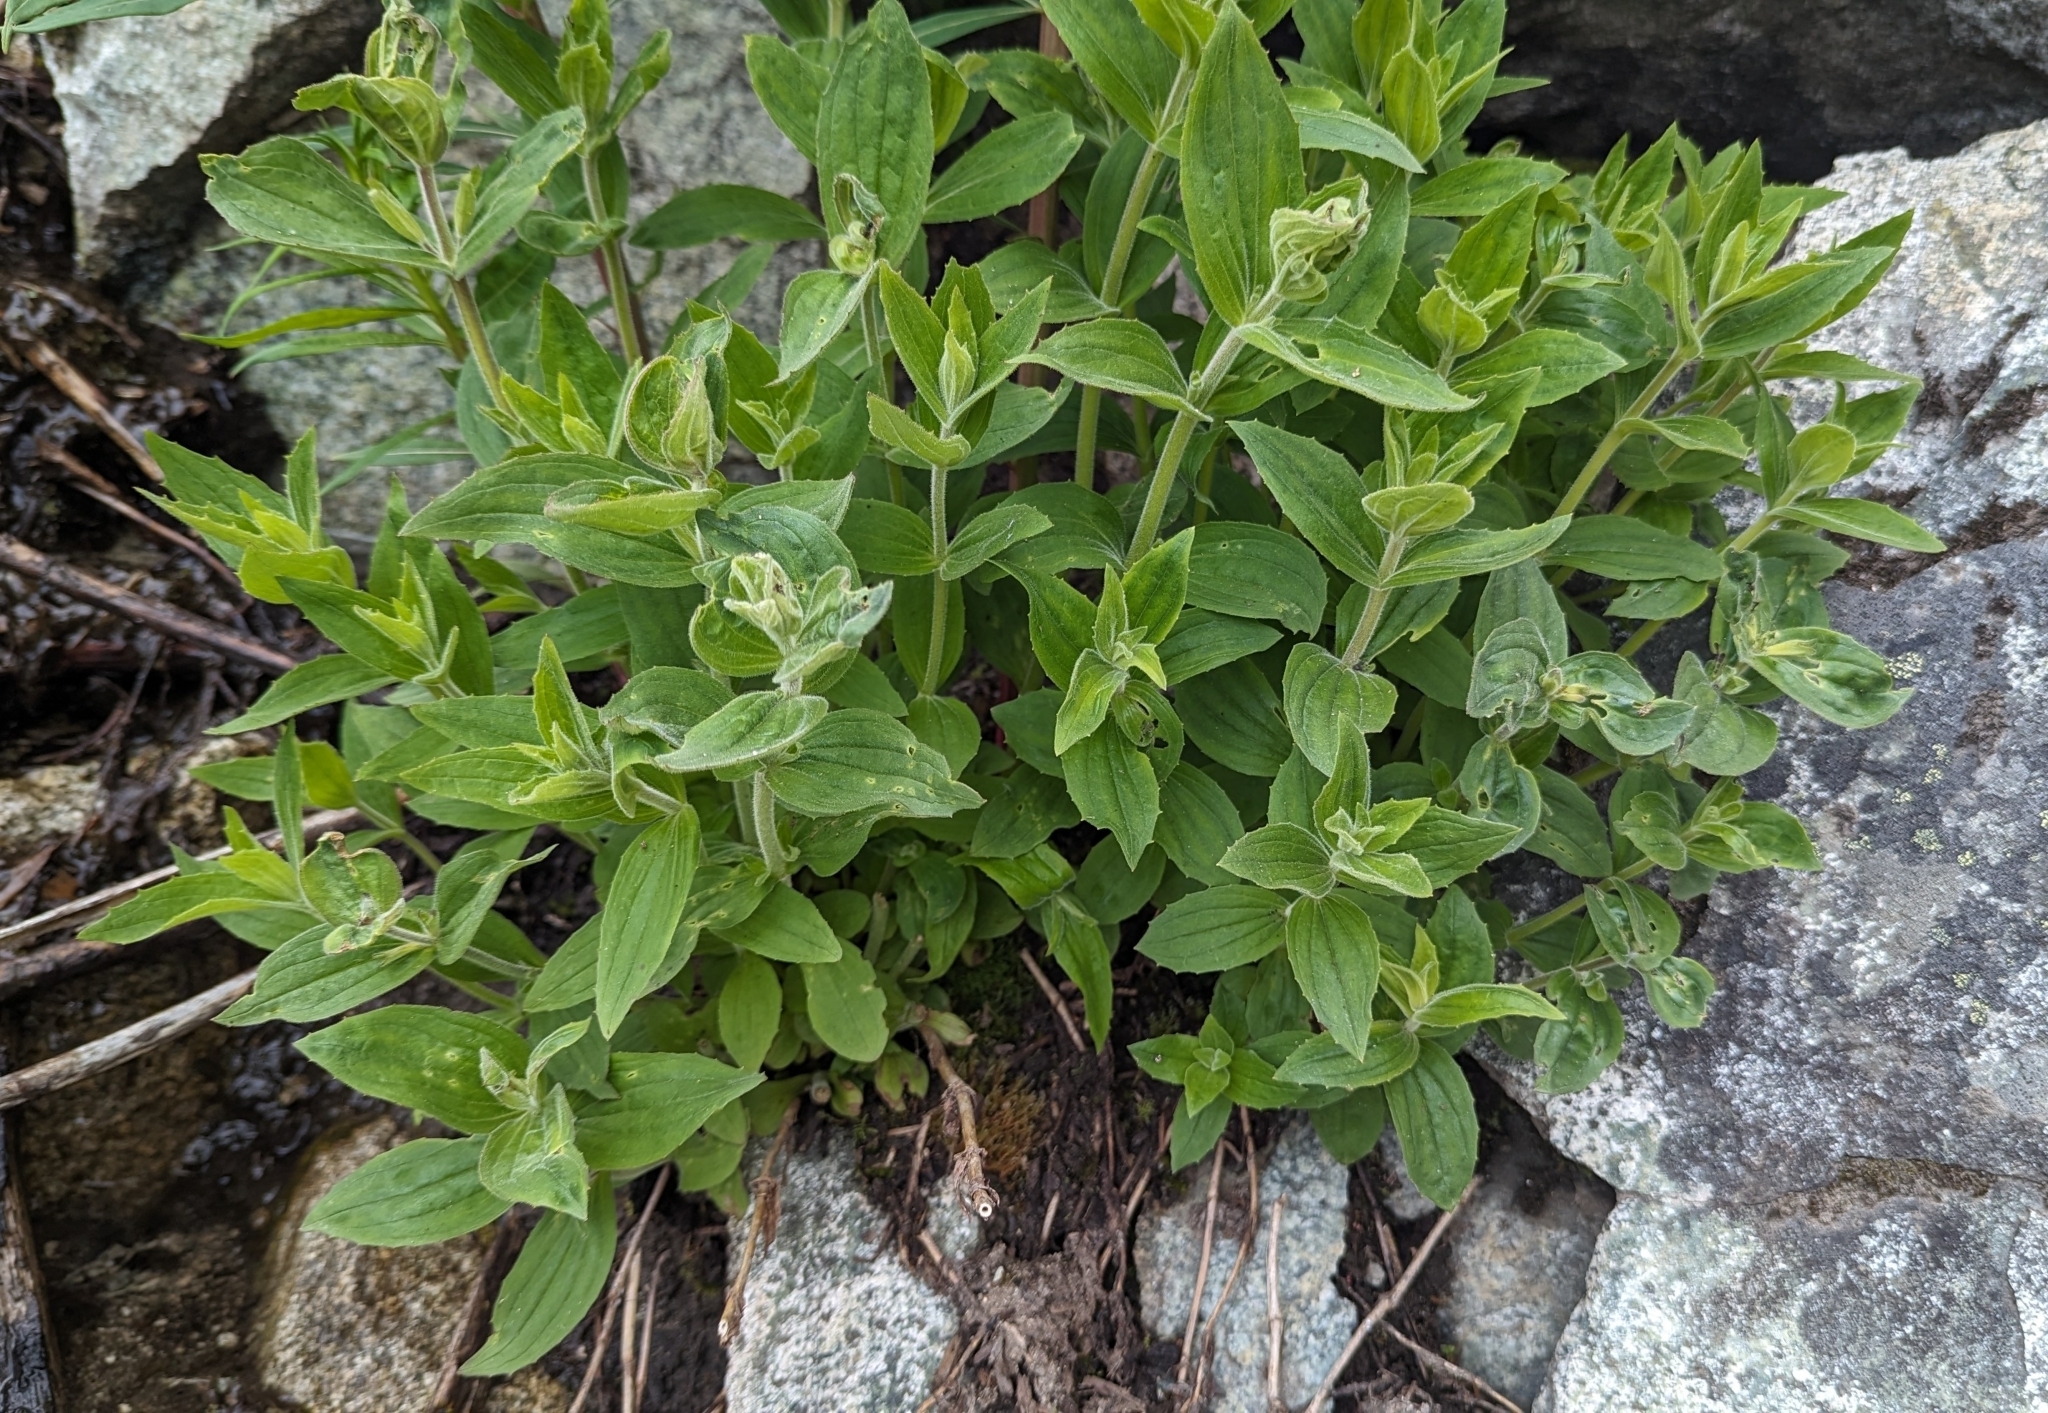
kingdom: Plantae
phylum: Tracheophyta
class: Magnoliopsida
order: Lamiales
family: Phrymaceae
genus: Erythranthe
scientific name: Erythranthe lewisii
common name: Lewis's monkey-flower
